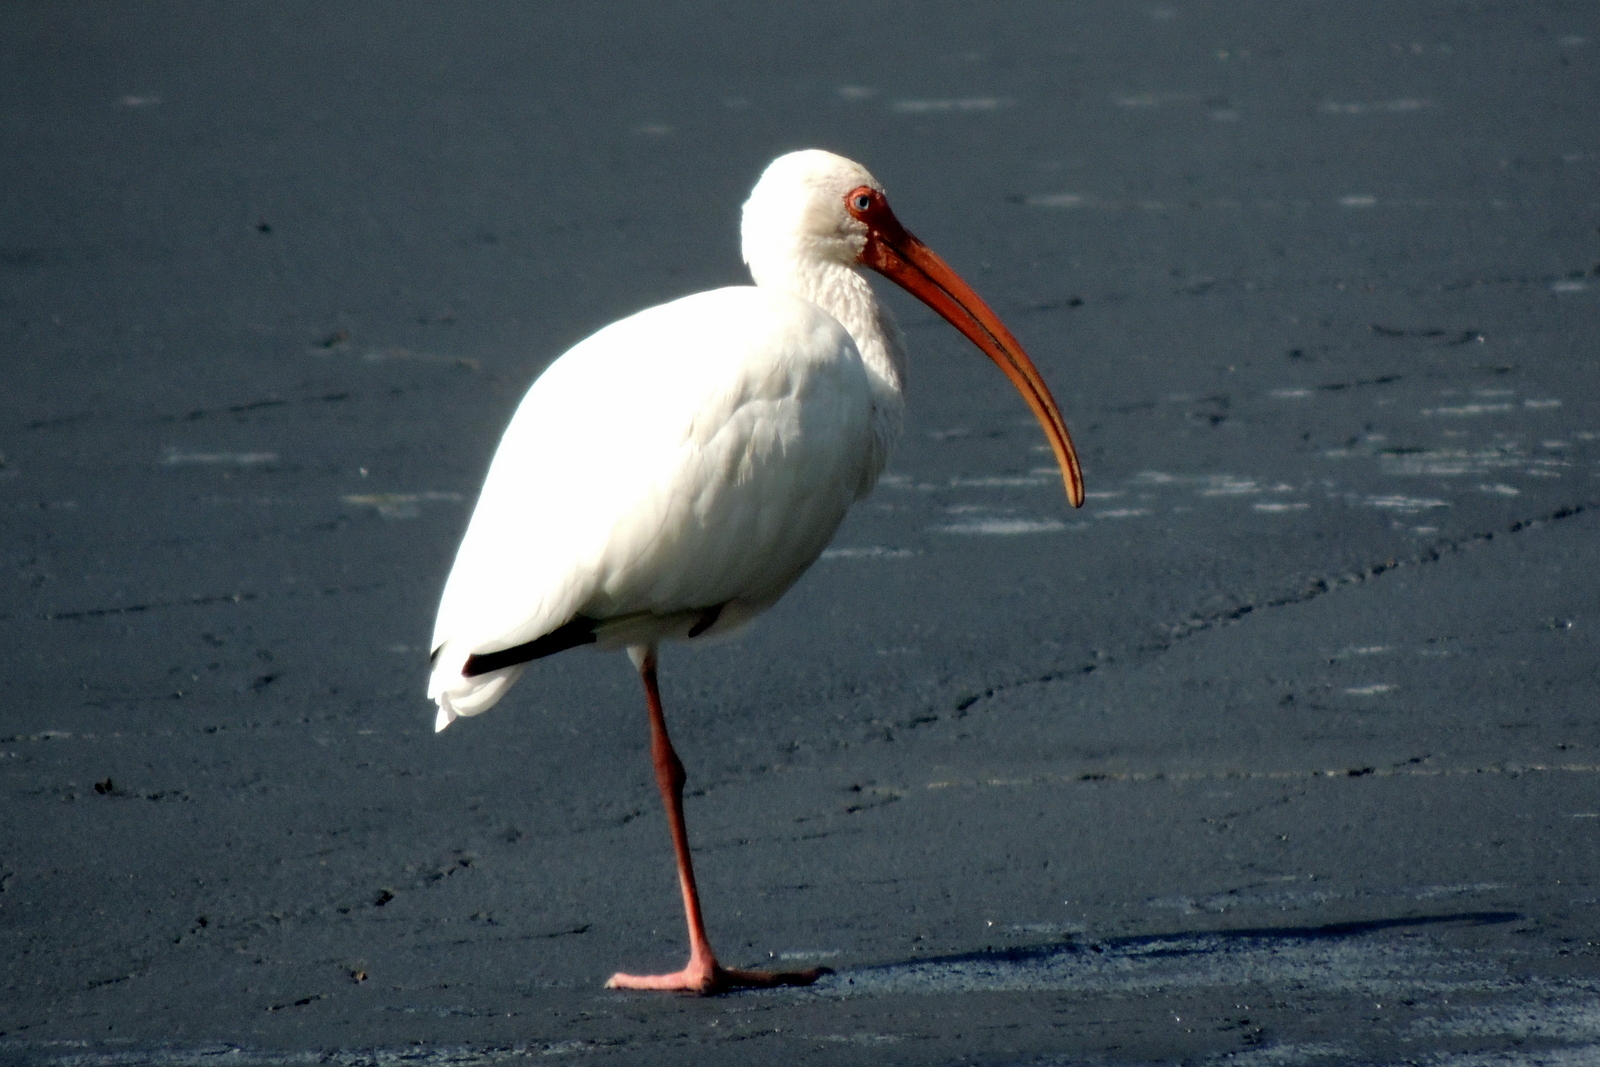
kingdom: Animalia
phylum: Chordata
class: Aves
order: Pelecaniformes
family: Threskiornithidae
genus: Eudocimus
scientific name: Eudocimus albus
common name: White ibis
